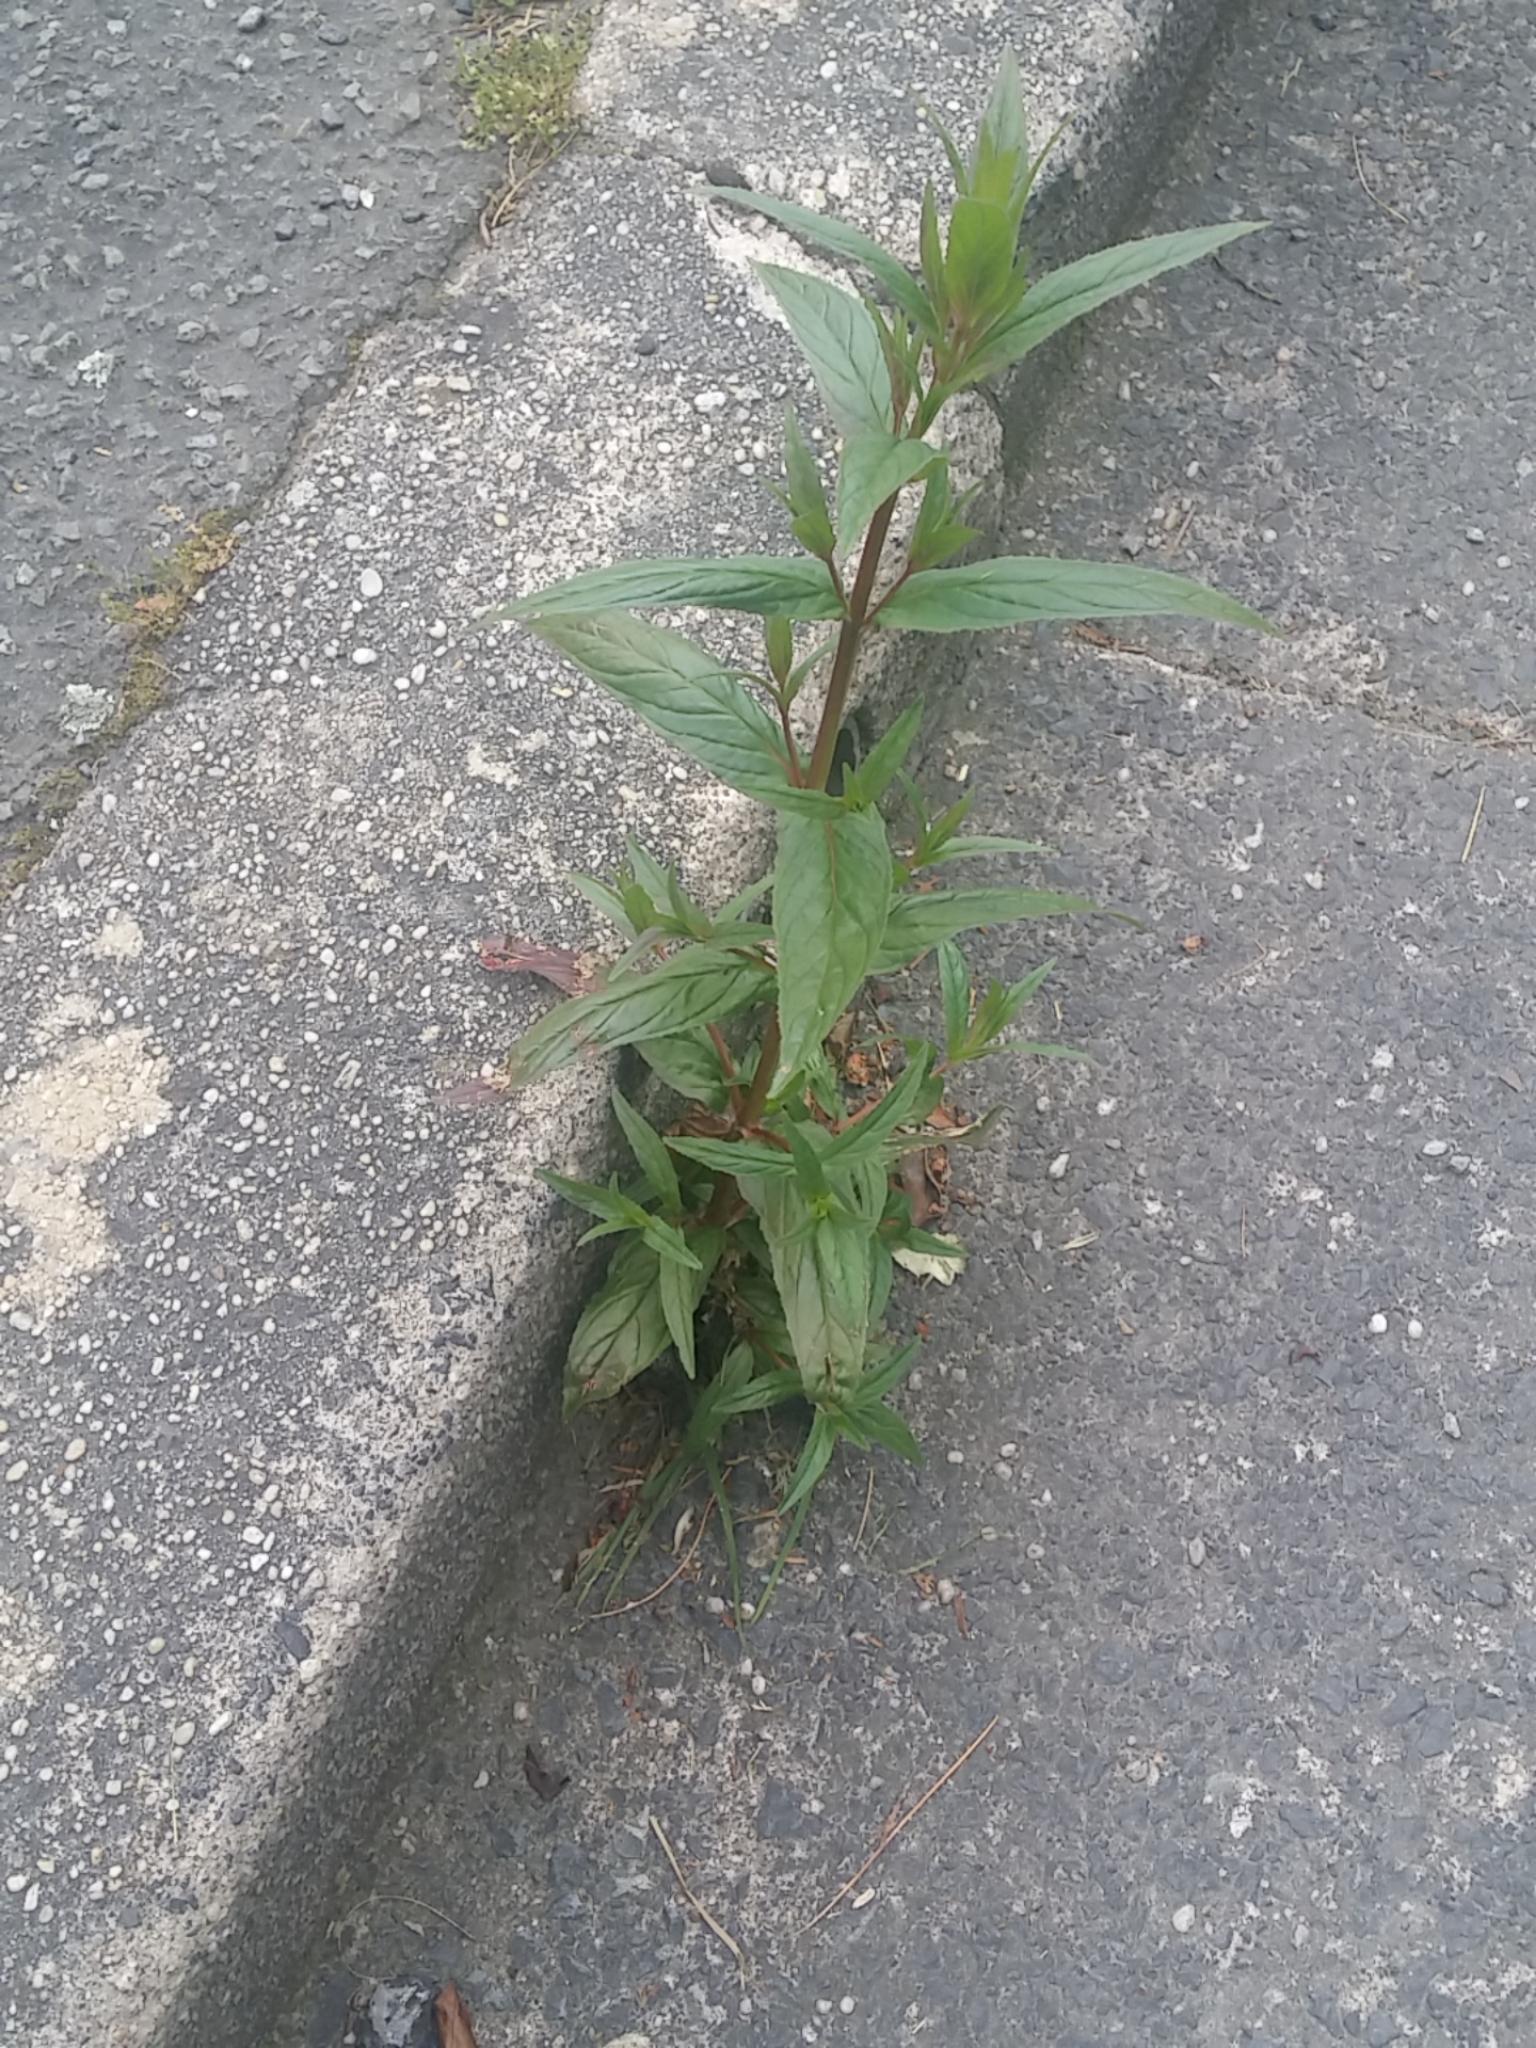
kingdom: Plantae
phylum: Tracheophyta
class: Magnoliopsida
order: Myrtales
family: Onagraceae
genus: Epilobium
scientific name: Epilobium ciliatum
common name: American willowherb
